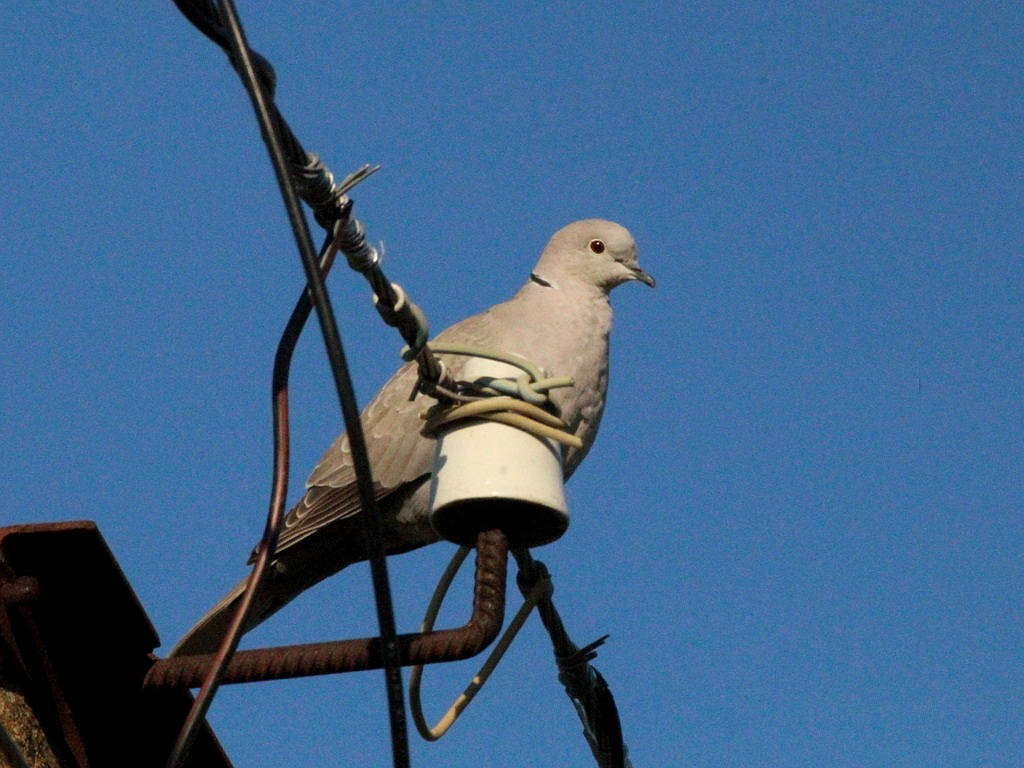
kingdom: Animalia
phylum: Chordata
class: Aves
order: Columbiformes
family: Columbidae
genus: Streptopelia
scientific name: Streptopelia decaocto
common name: Eurasian collared dove
